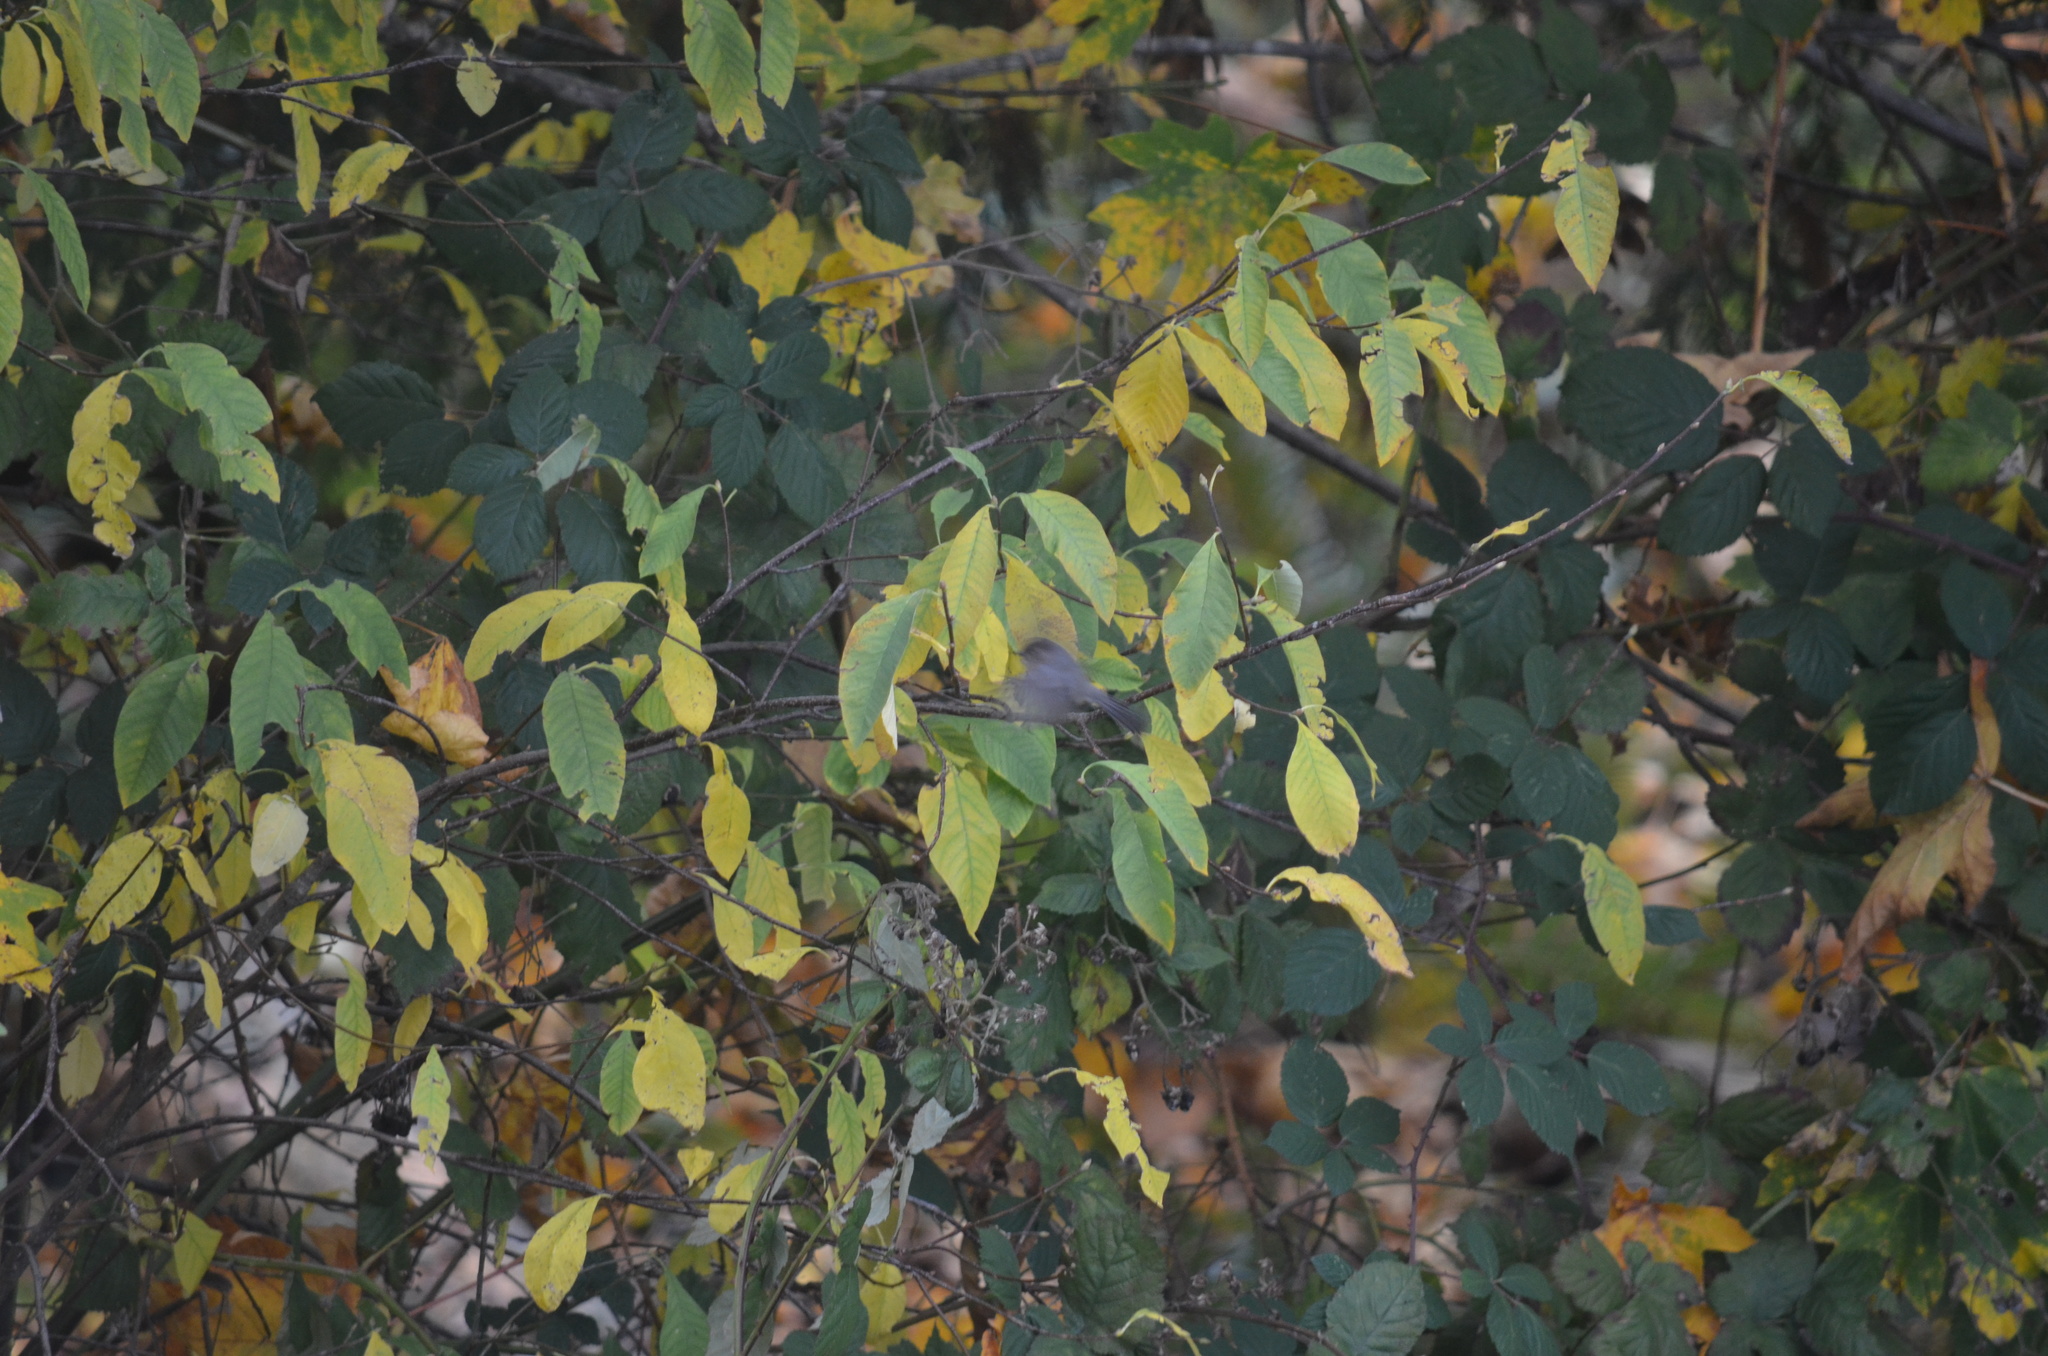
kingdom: Animalia
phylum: Chordata
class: Aves
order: Passeriformes
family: Aegithalidae
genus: Psaltriparus
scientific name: Psaltriparus minimus
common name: American bushtit
